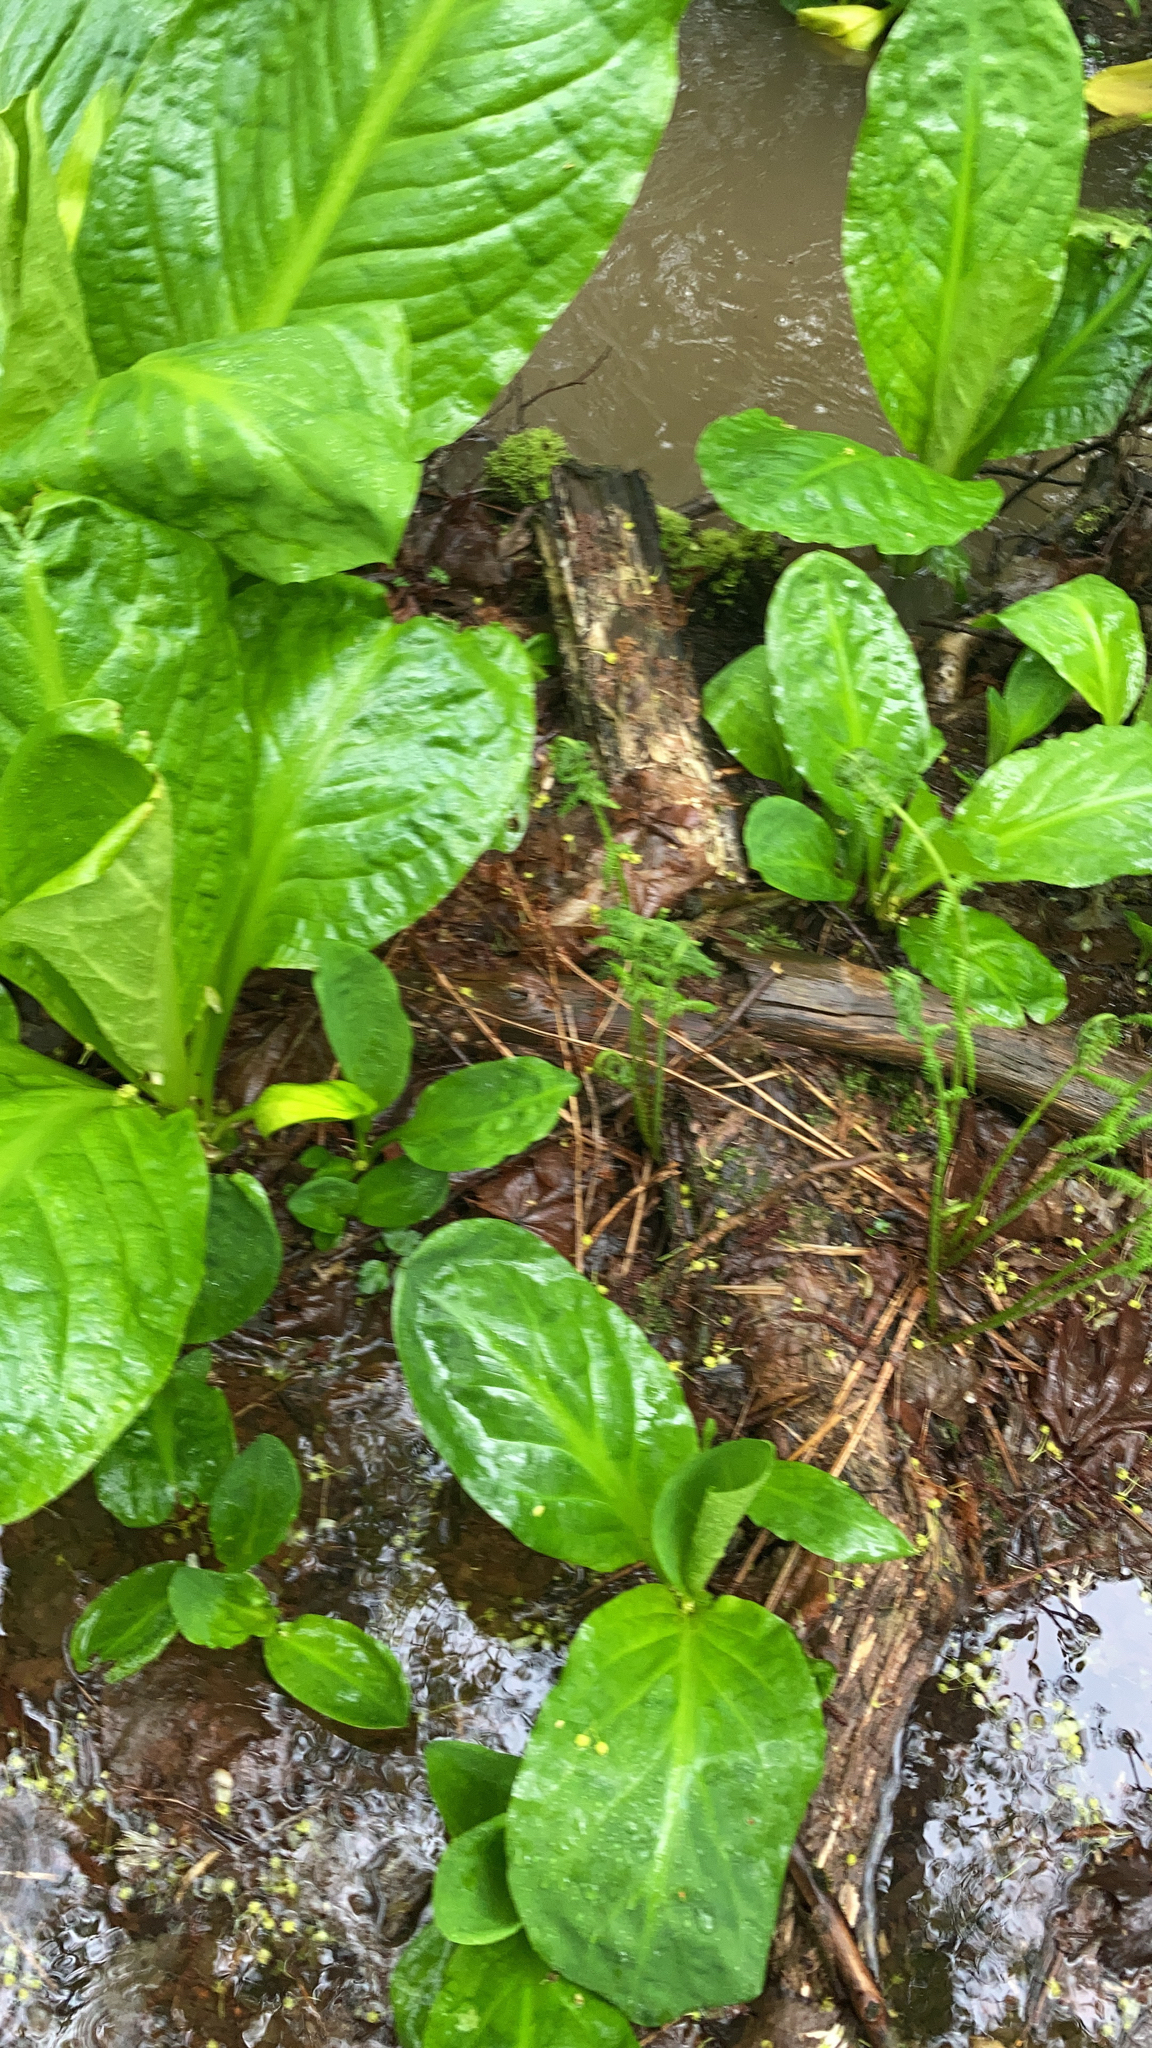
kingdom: Plantae
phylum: Tracheophyta
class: Liliopsida
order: Alismatales
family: Araceae
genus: Lysichiton
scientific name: Lysichiton americanus
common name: American skunk cabbage
